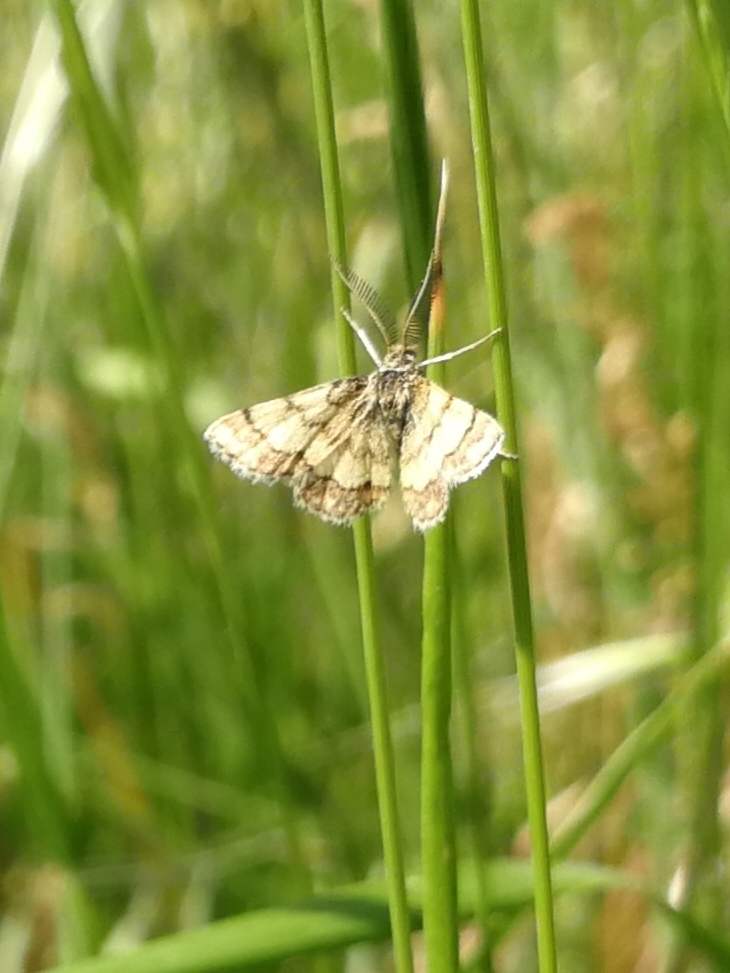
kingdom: Animalia
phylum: Arthropoda
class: Insecta
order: Lepidoptera
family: Geometridae
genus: Cleta
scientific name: Cleta ramosaria
